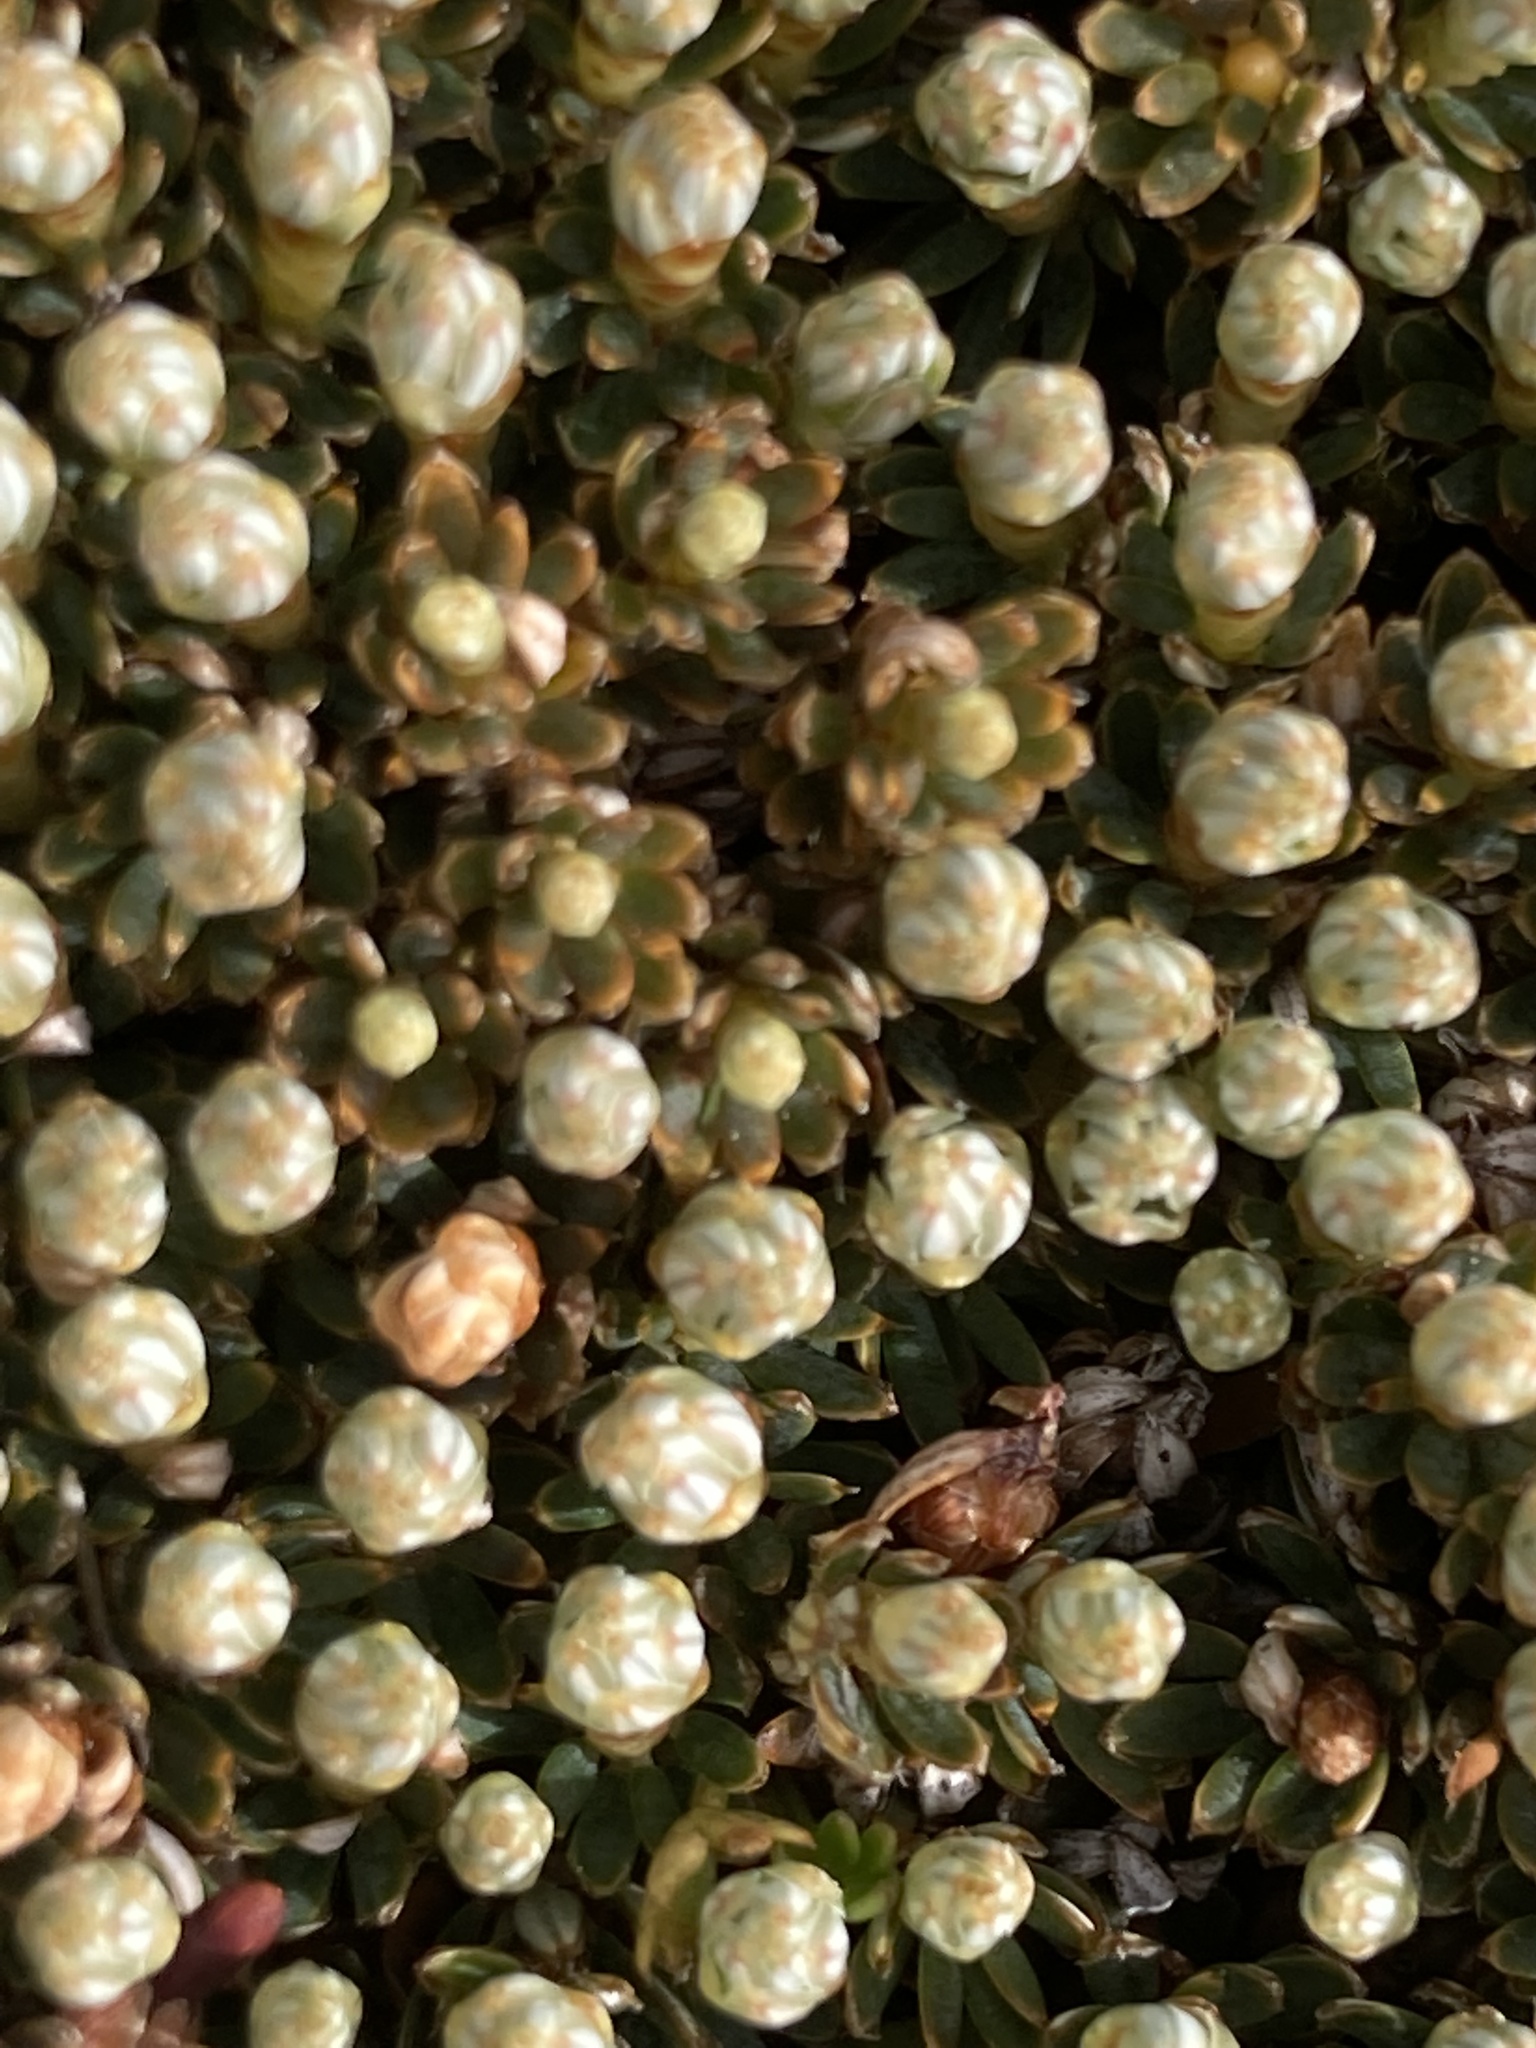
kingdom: Plantae
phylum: Tracheophyta
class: Magnoliopsida
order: Ericales
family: Ericaceae
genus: Montitega
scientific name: Montitega dealbata
